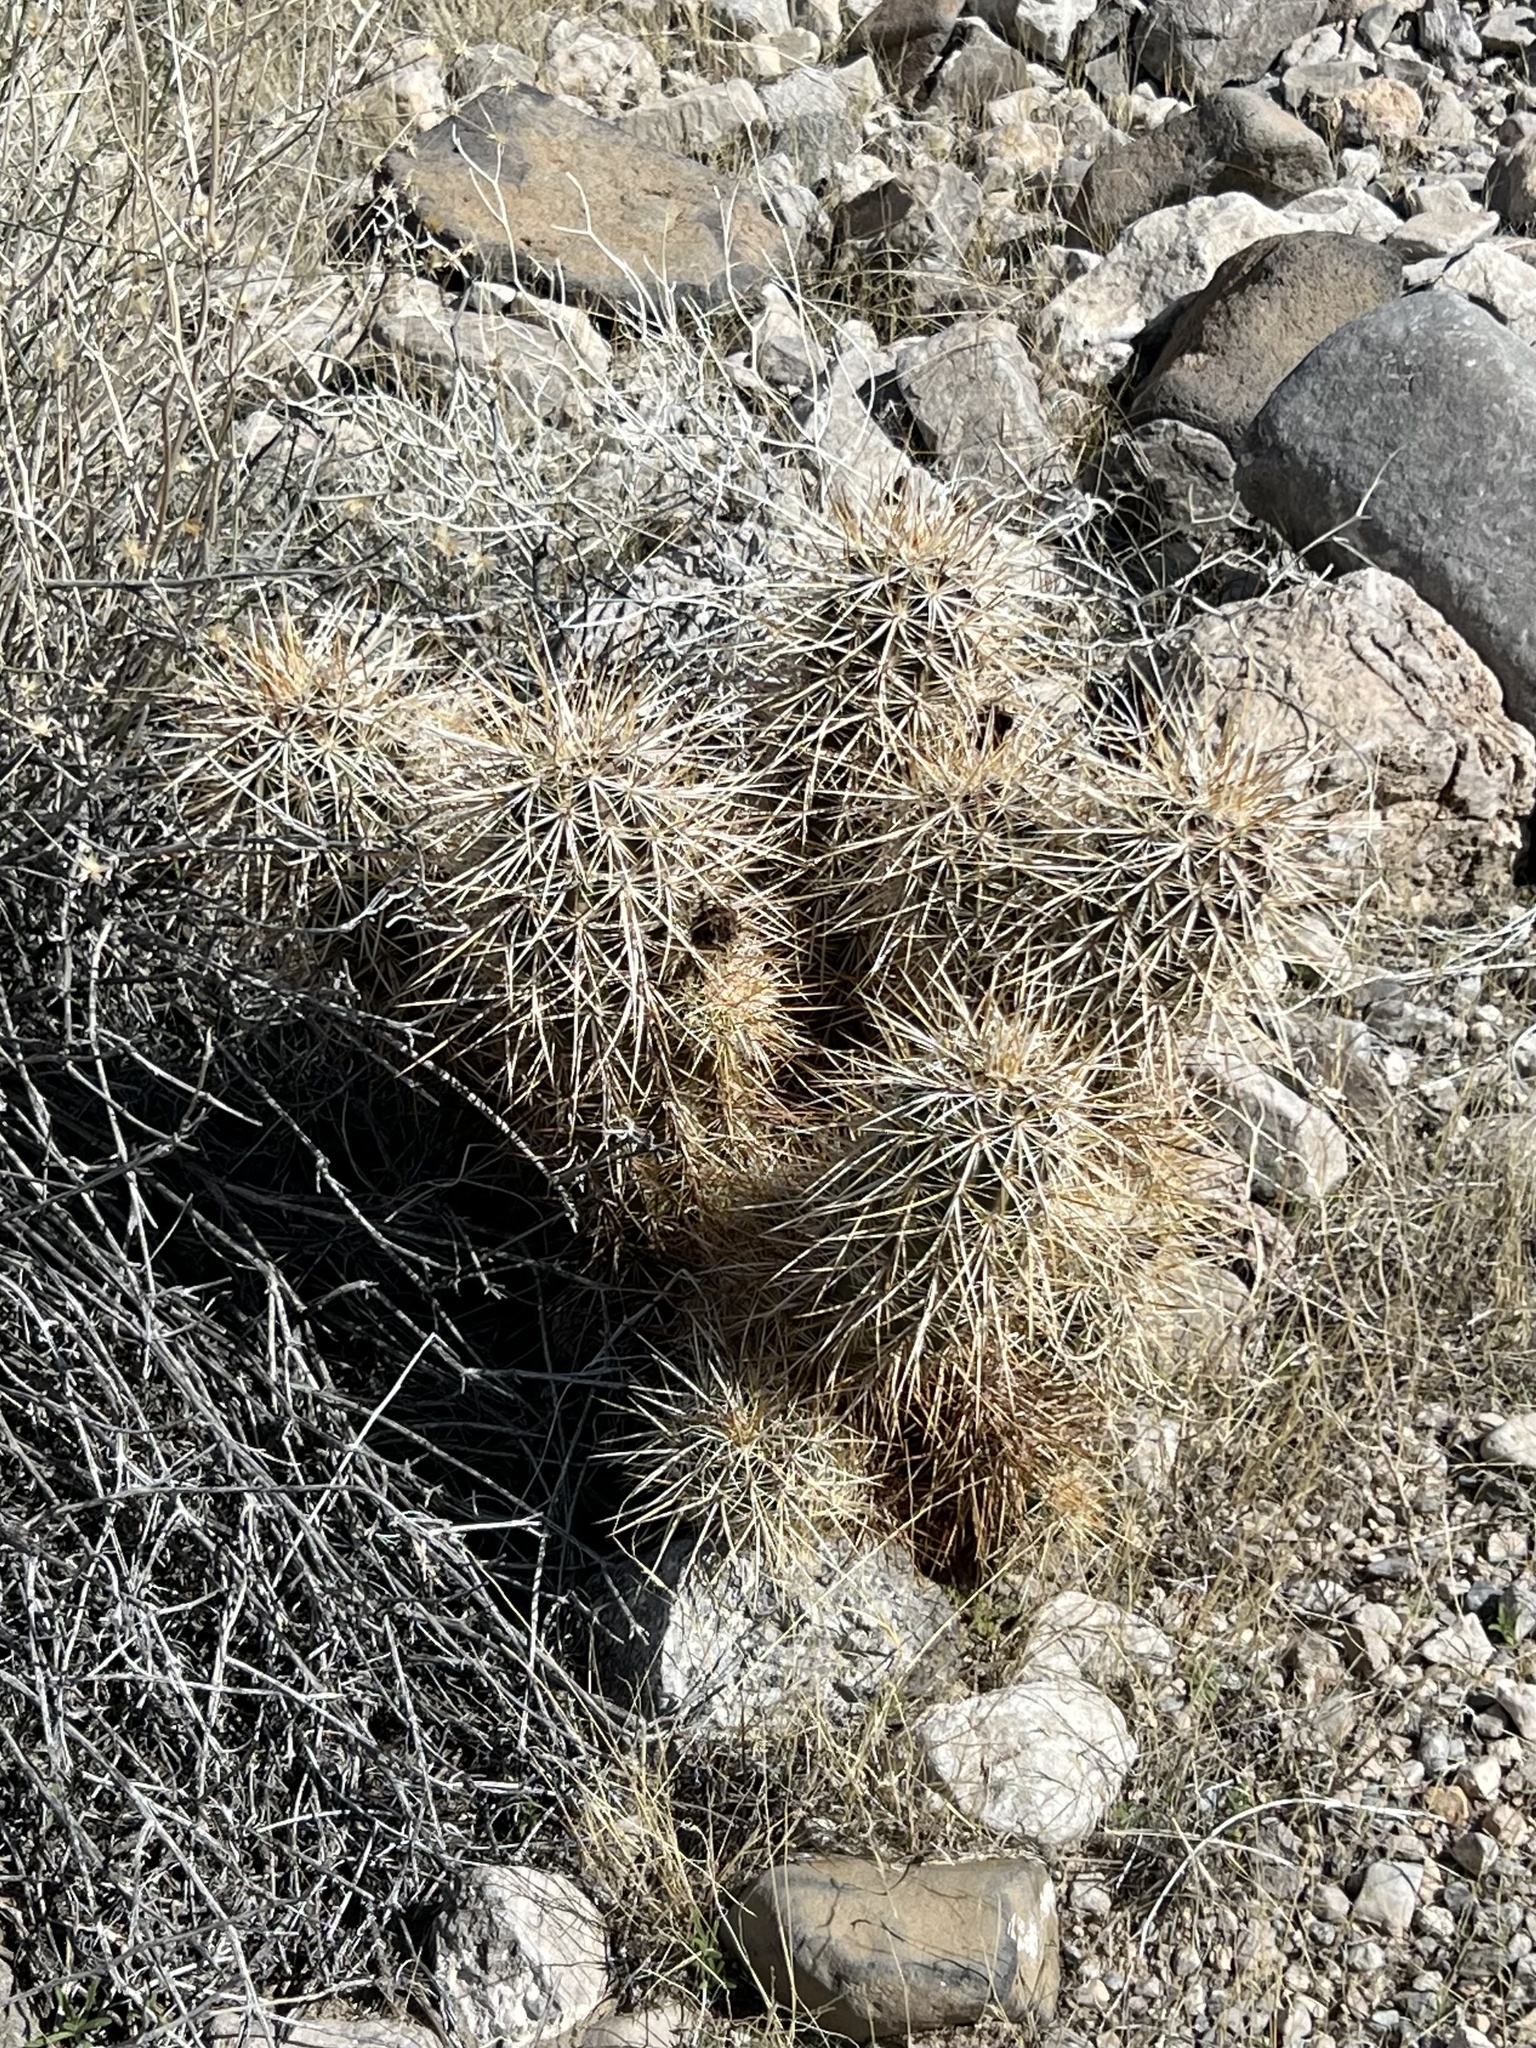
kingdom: Plantae
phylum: Tracheophyta
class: Magnoliopsida
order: Caryophyllales
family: Cactaceae
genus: Echinocereus
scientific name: Echinocereus engelmannii
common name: Engelmann's hedgehog cactus
